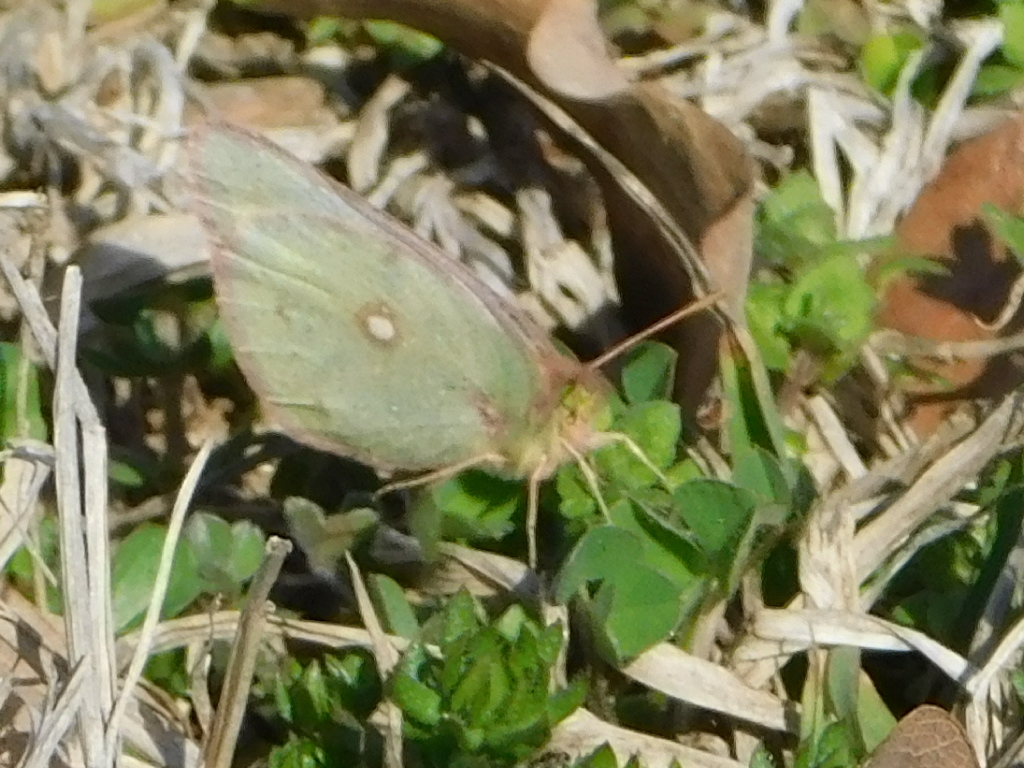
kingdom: Animalia
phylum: Arthropoda
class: Insecta
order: Lepidoptera
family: Pieridae
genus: Colias
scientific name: Colias eurytheme
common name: Alfalfa butterfly
